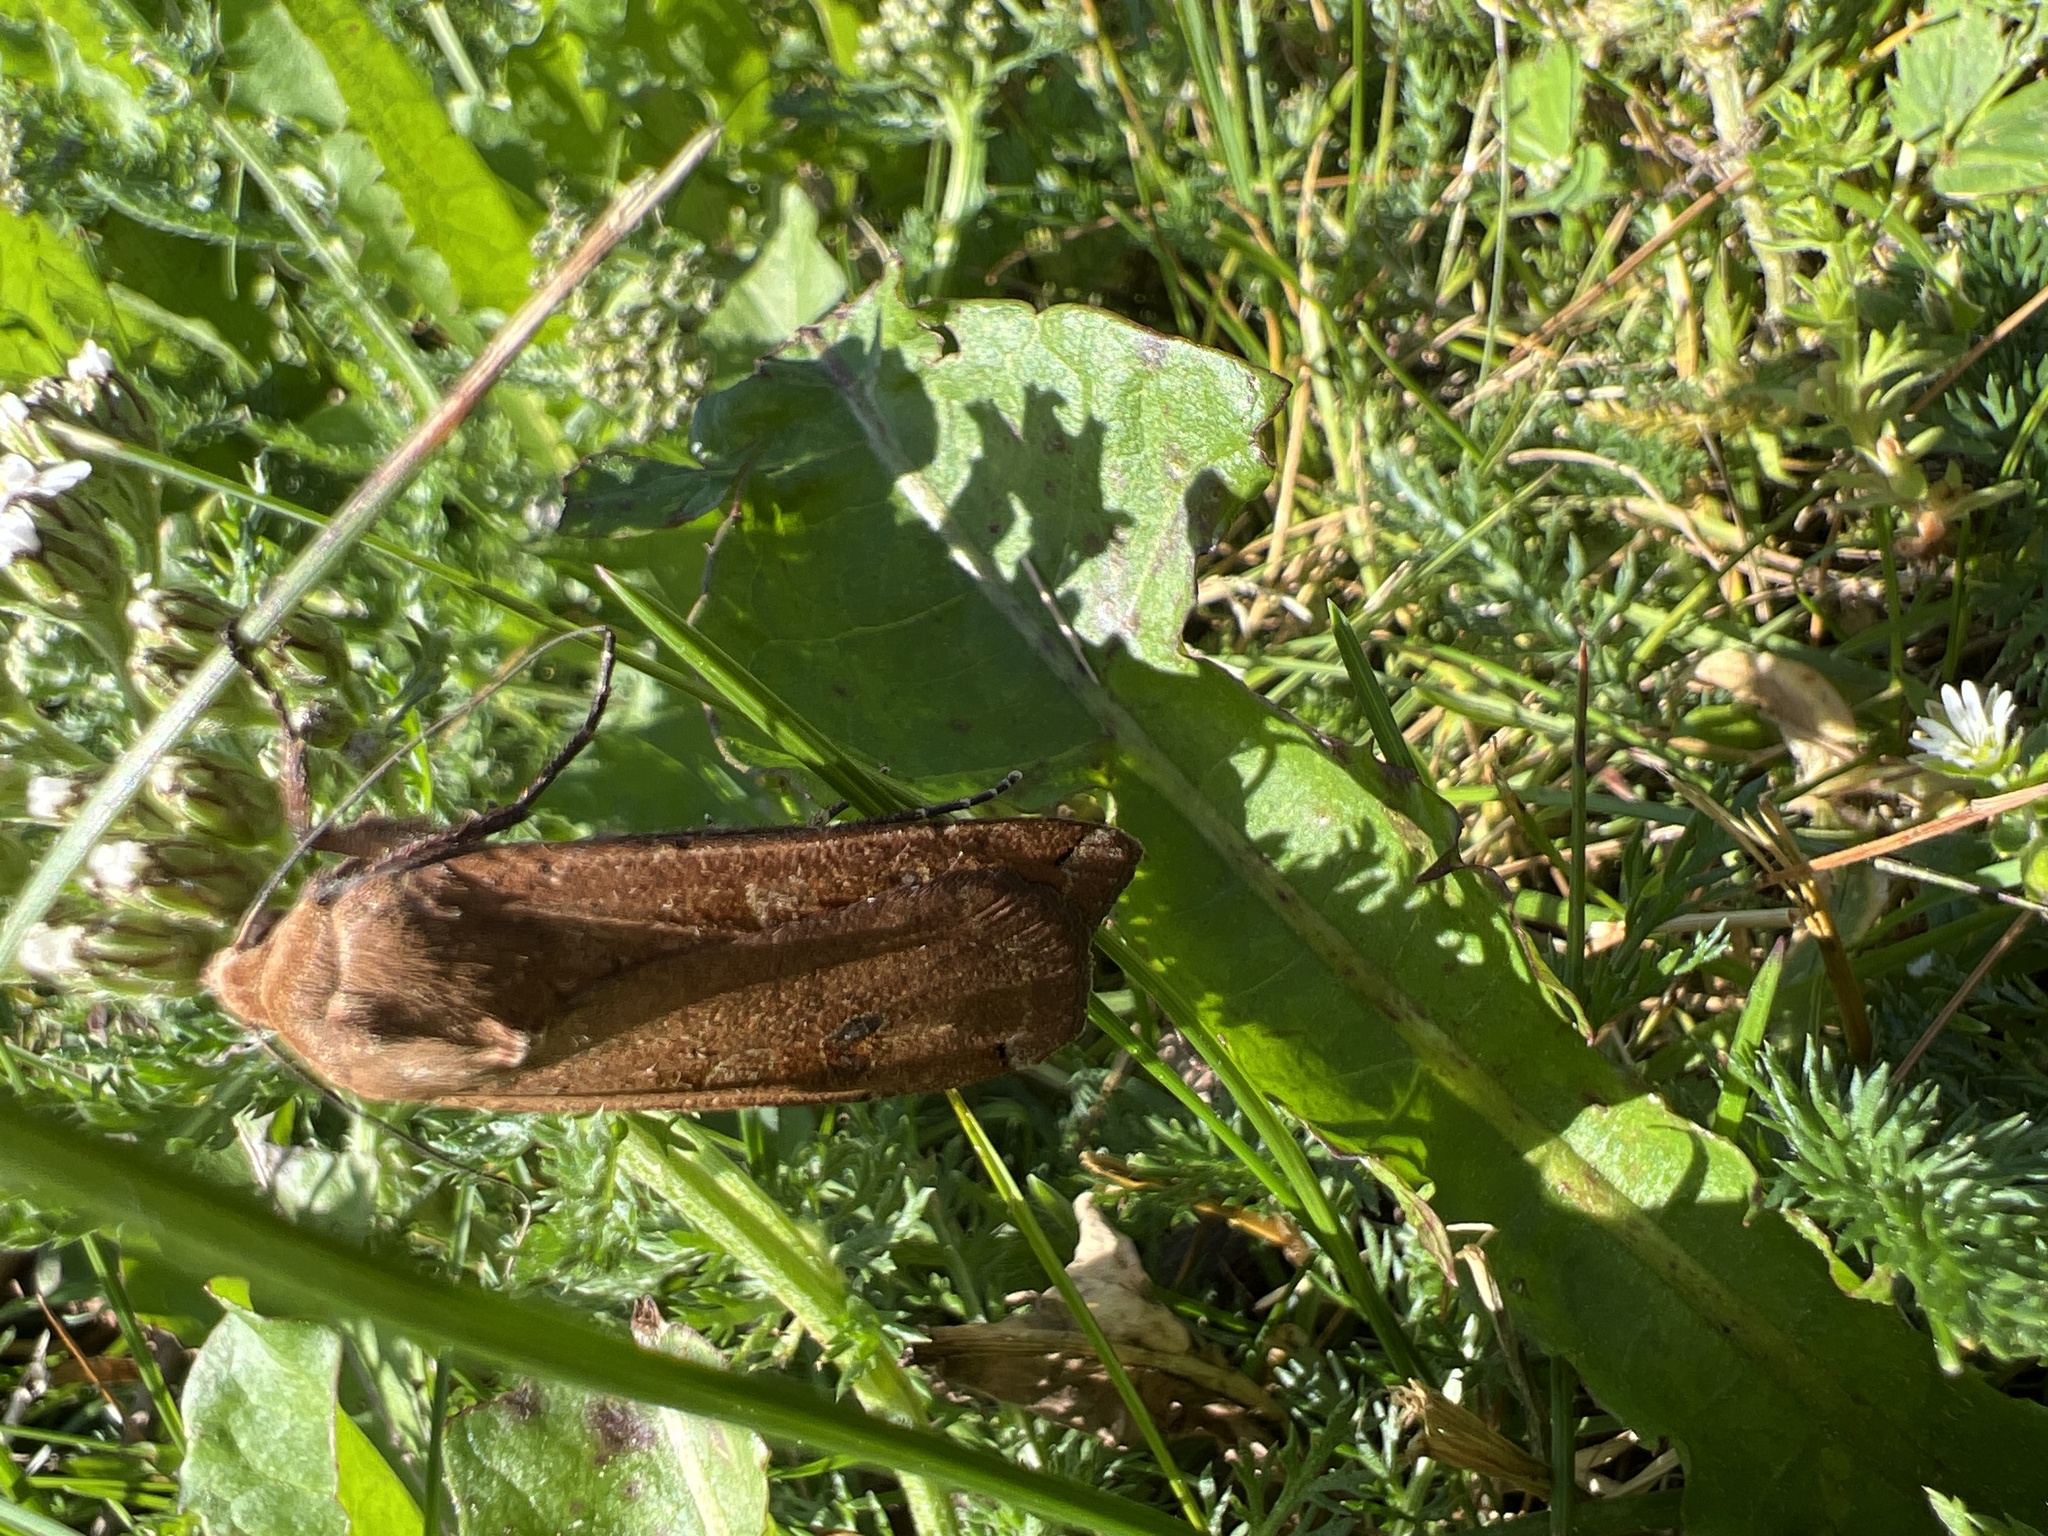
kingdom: Animalia
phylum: Arthropoda
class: Insecta
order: Lepidoptera
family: Noctuidae
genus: Noctua
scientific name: Noctua pronuba
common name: Large yellow underwing
